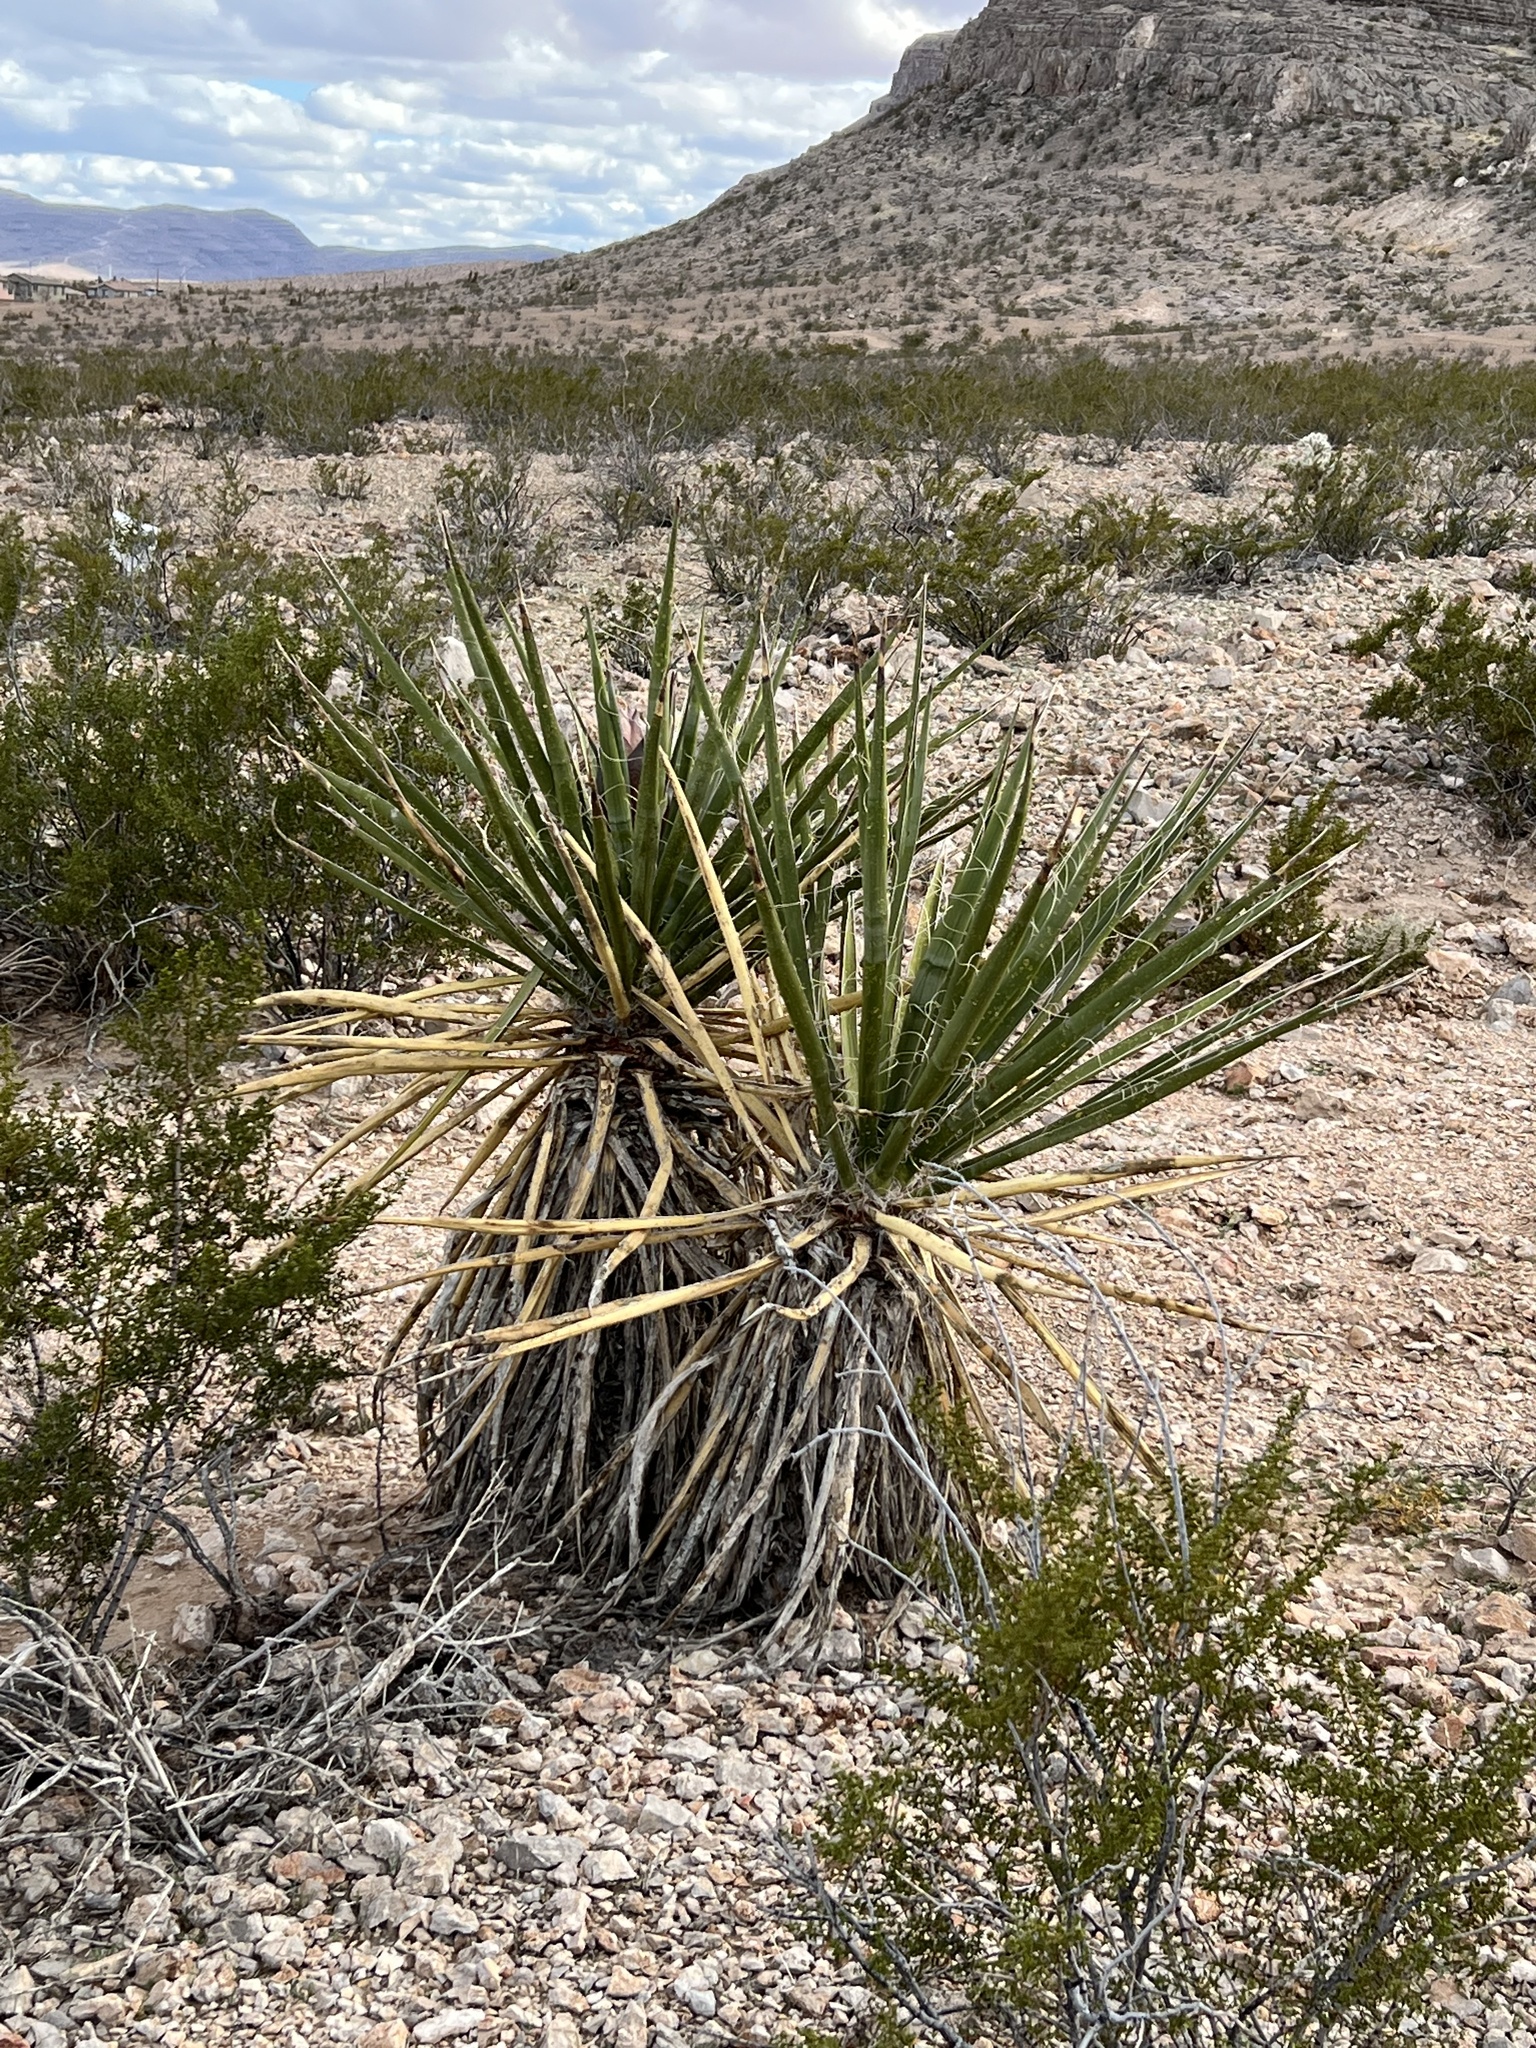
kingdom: Plantae
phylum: Tracheophyta
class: Liliopsida
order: Asparagales
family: Asparagaceae
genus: Yucca
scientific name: Yucca schidigera
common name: Mojave yucca
